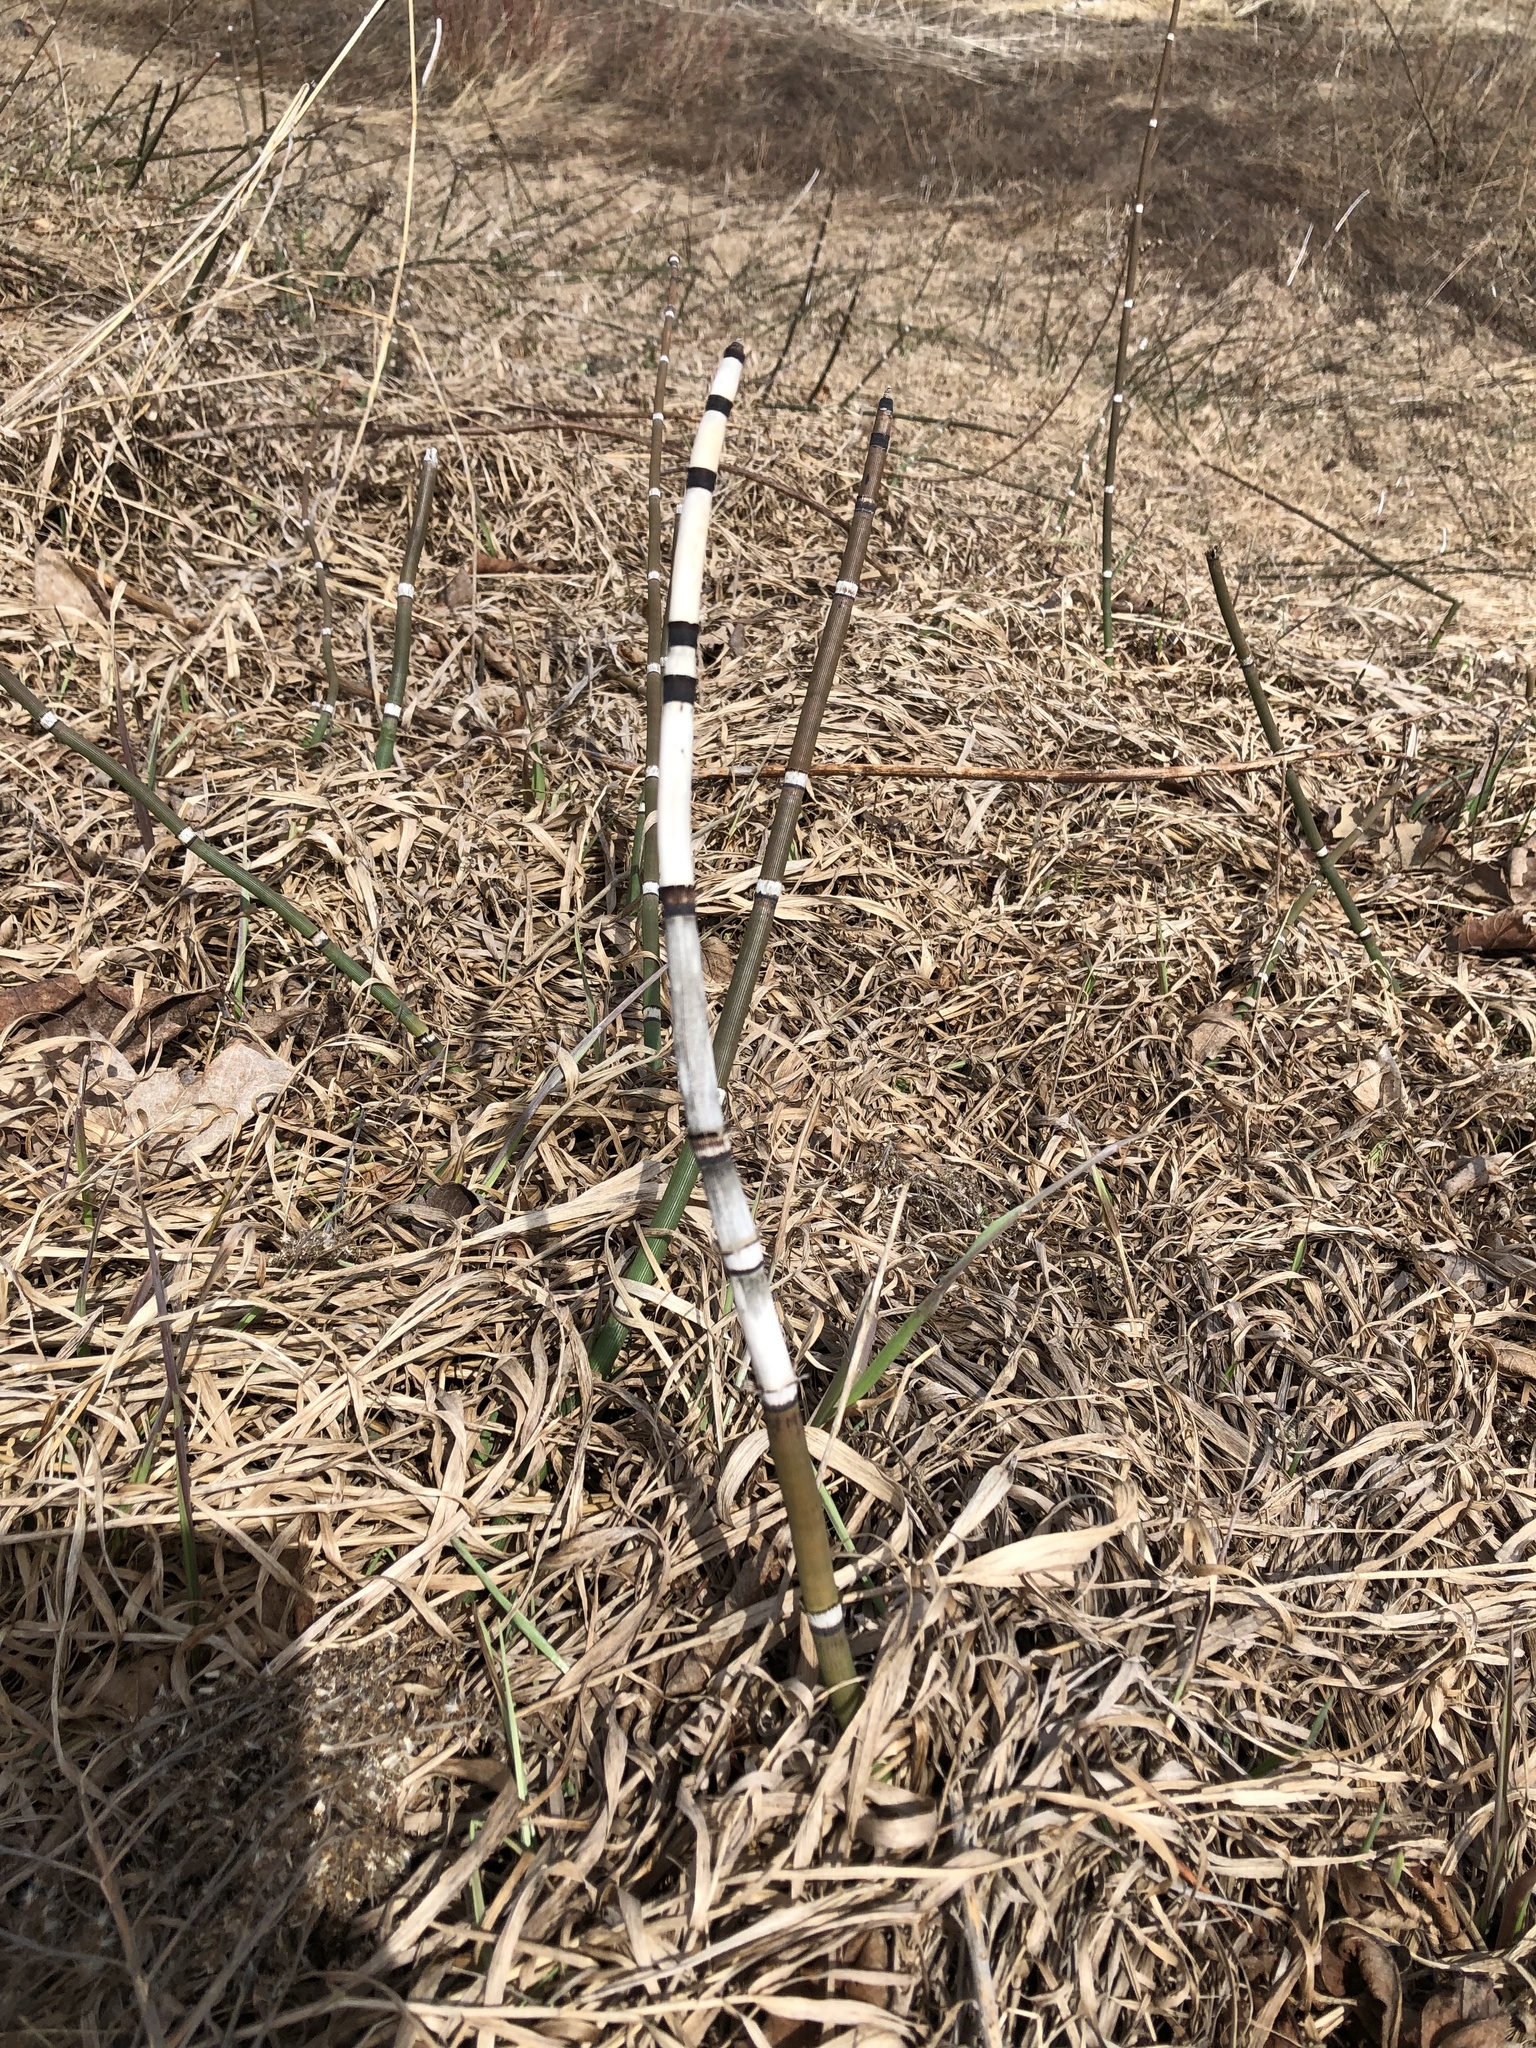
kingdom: Plantae
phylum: Tracheophyta
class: Polypodiopsida
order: Equisetales
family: Equisetaceae
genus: Equisetum
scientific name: Equisetum hyemale
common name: Rough horsetail
